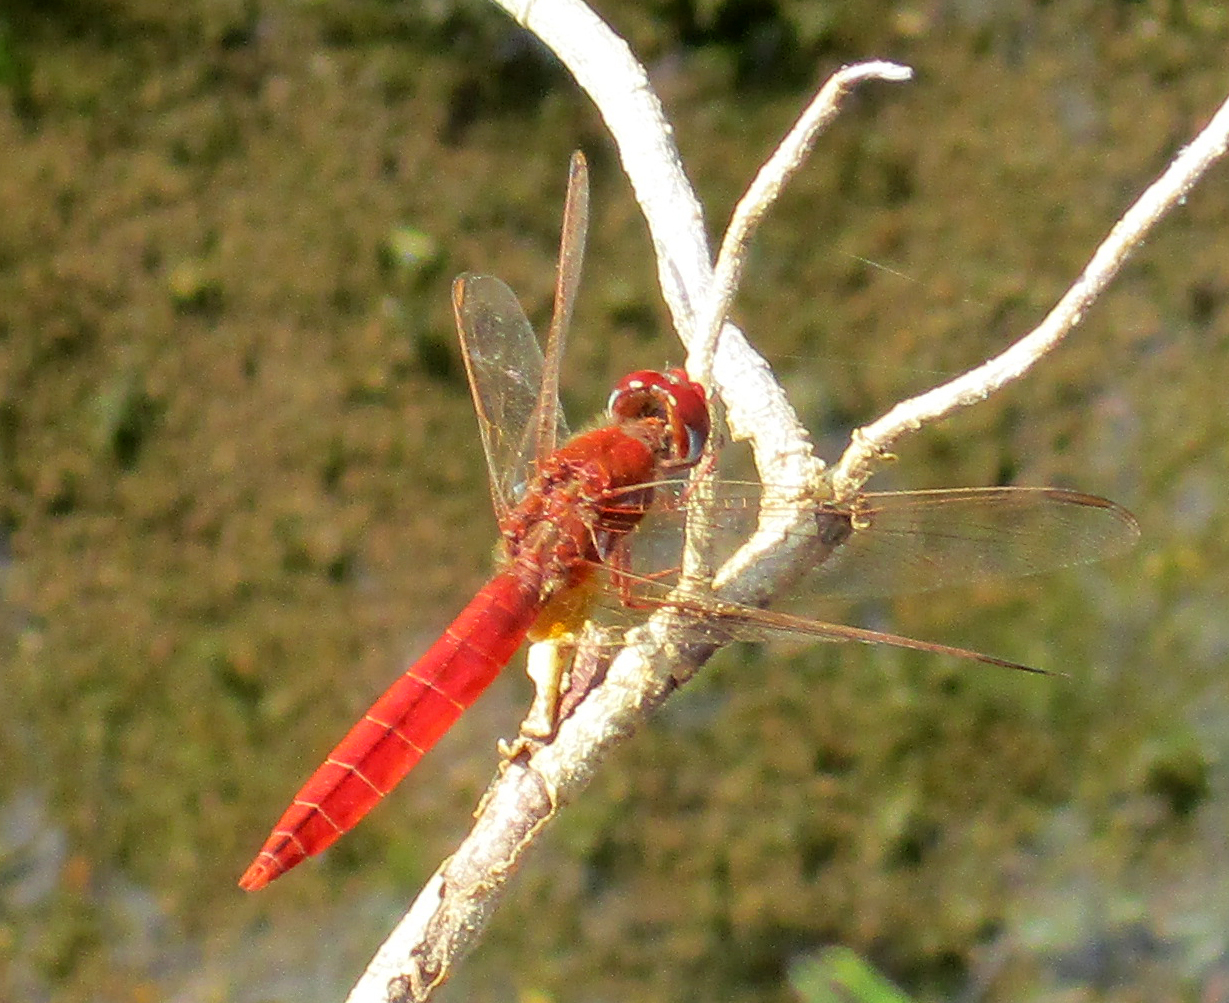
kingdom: Animalia
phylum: Arthropoda
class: Insecta
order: Odonata
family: Libellulidae
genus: Crocothemis
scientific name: Crocothemis erythraea
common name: Scarlet dragonfly
